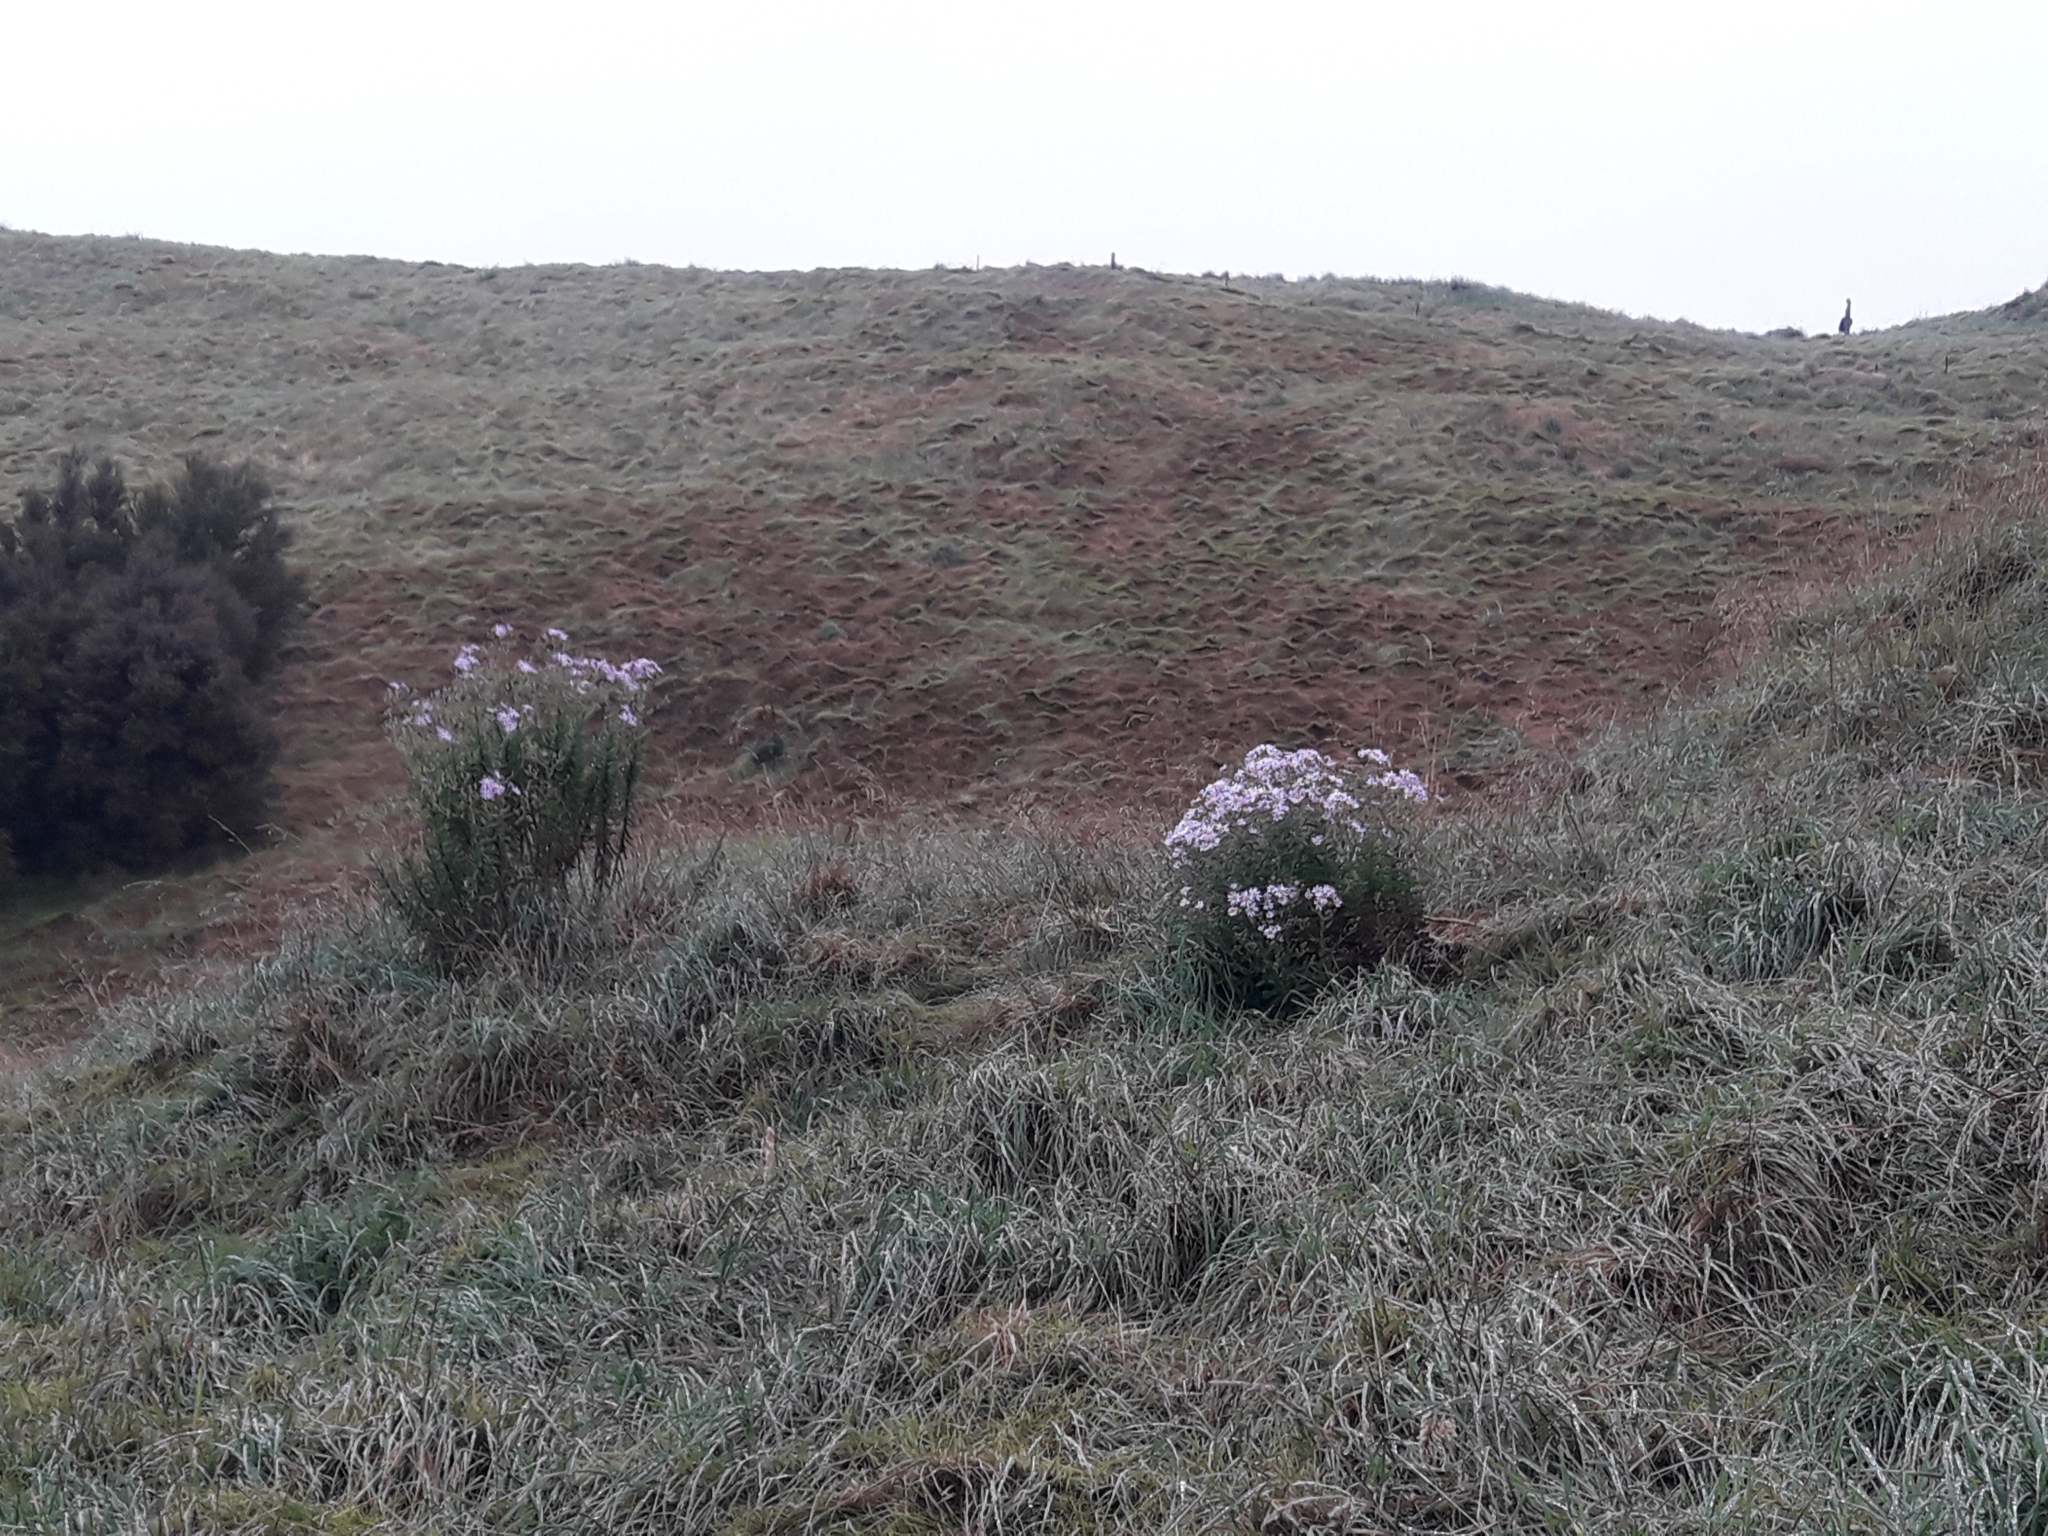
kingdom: Plantae
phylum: Tracheophyta
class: Magnoliopsida
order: Asterales
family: Asteraceae
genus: Senecio
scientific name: Senecio glastifolius
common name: Woad-leaved ragwort
